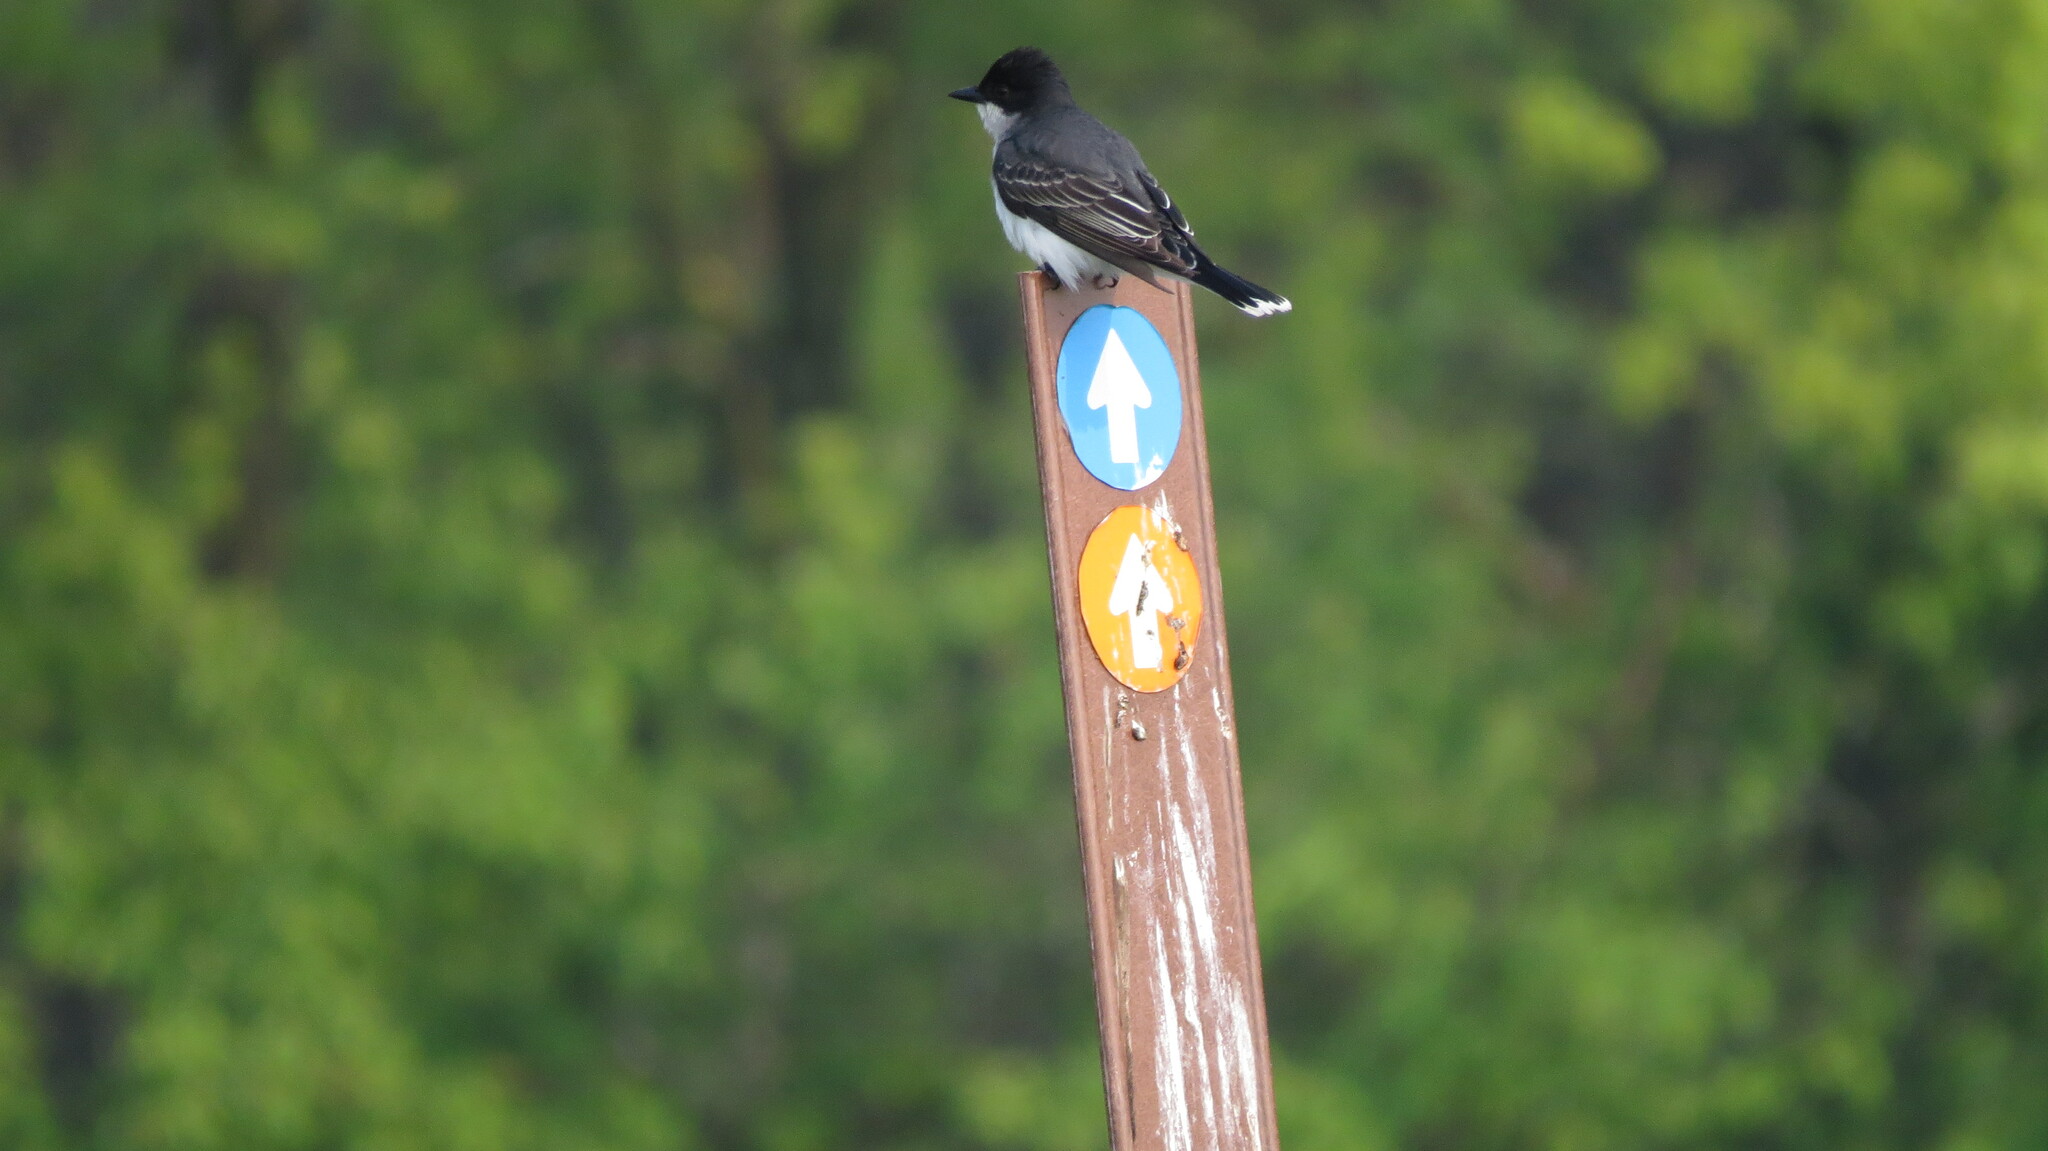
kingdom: Animalia
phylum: Chordata
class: Aves
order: Passeriformes
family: Tyrannidae
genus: Tyrannus
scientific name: Tyrannus tyrannus
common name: Eastern kingbird
